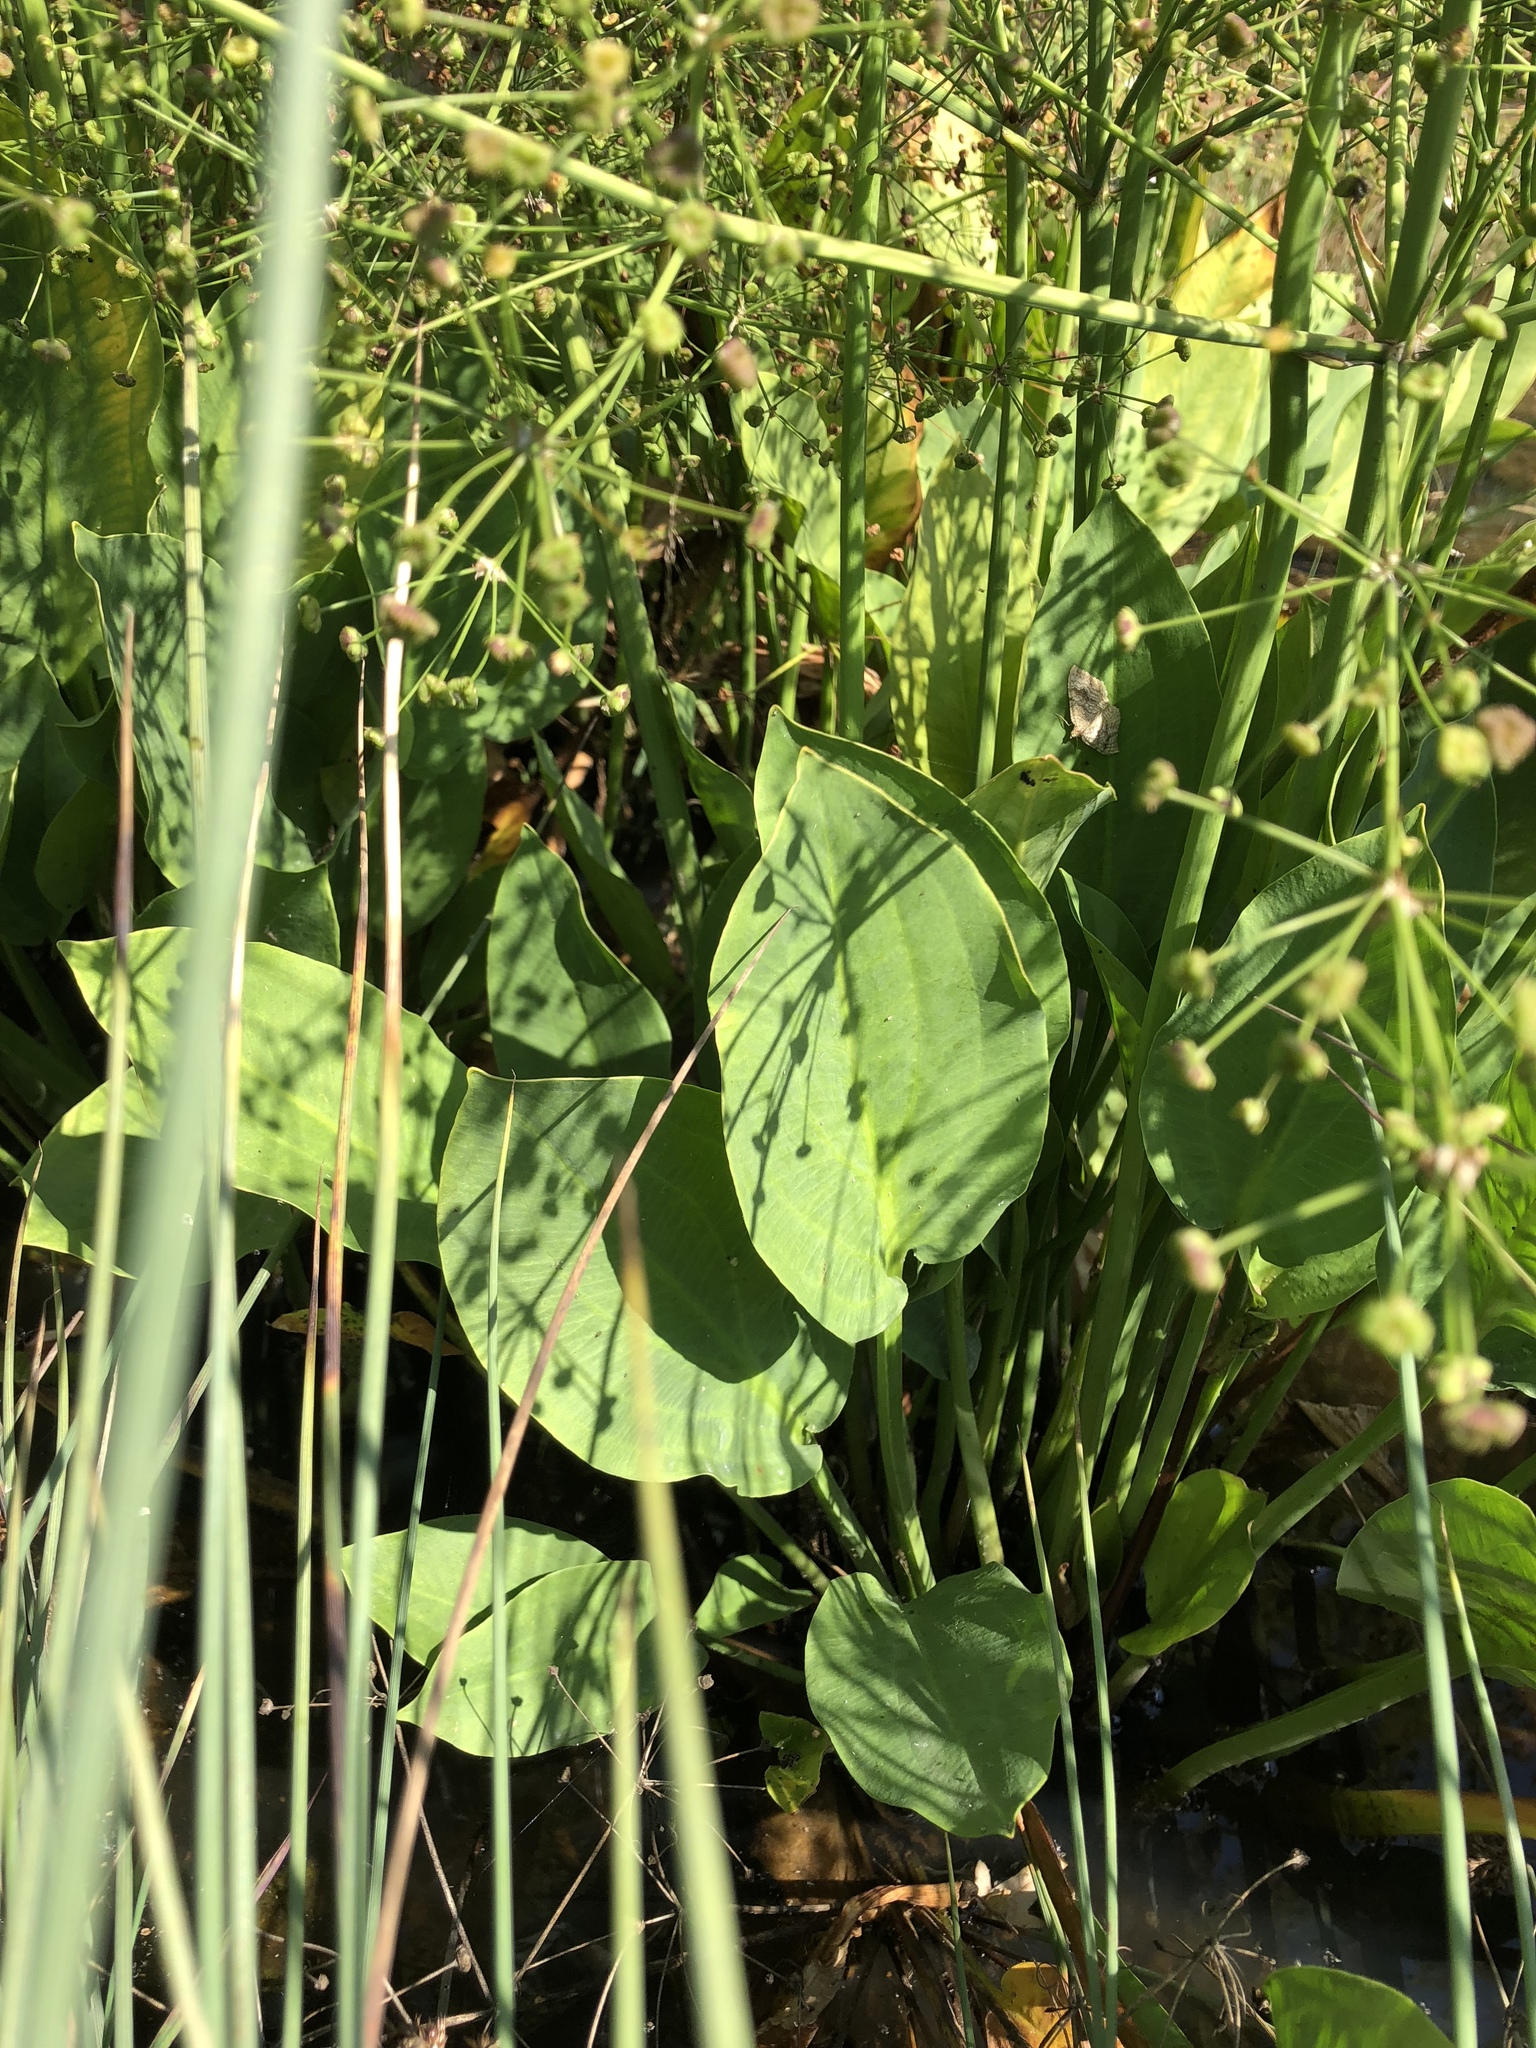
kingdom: Plantae
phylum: Tracheophyta
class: Liliopsida
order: Alismatales
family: Alismataceae
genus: Alisma
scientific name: Alisma plantago-aquatica
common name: Water-plantain
